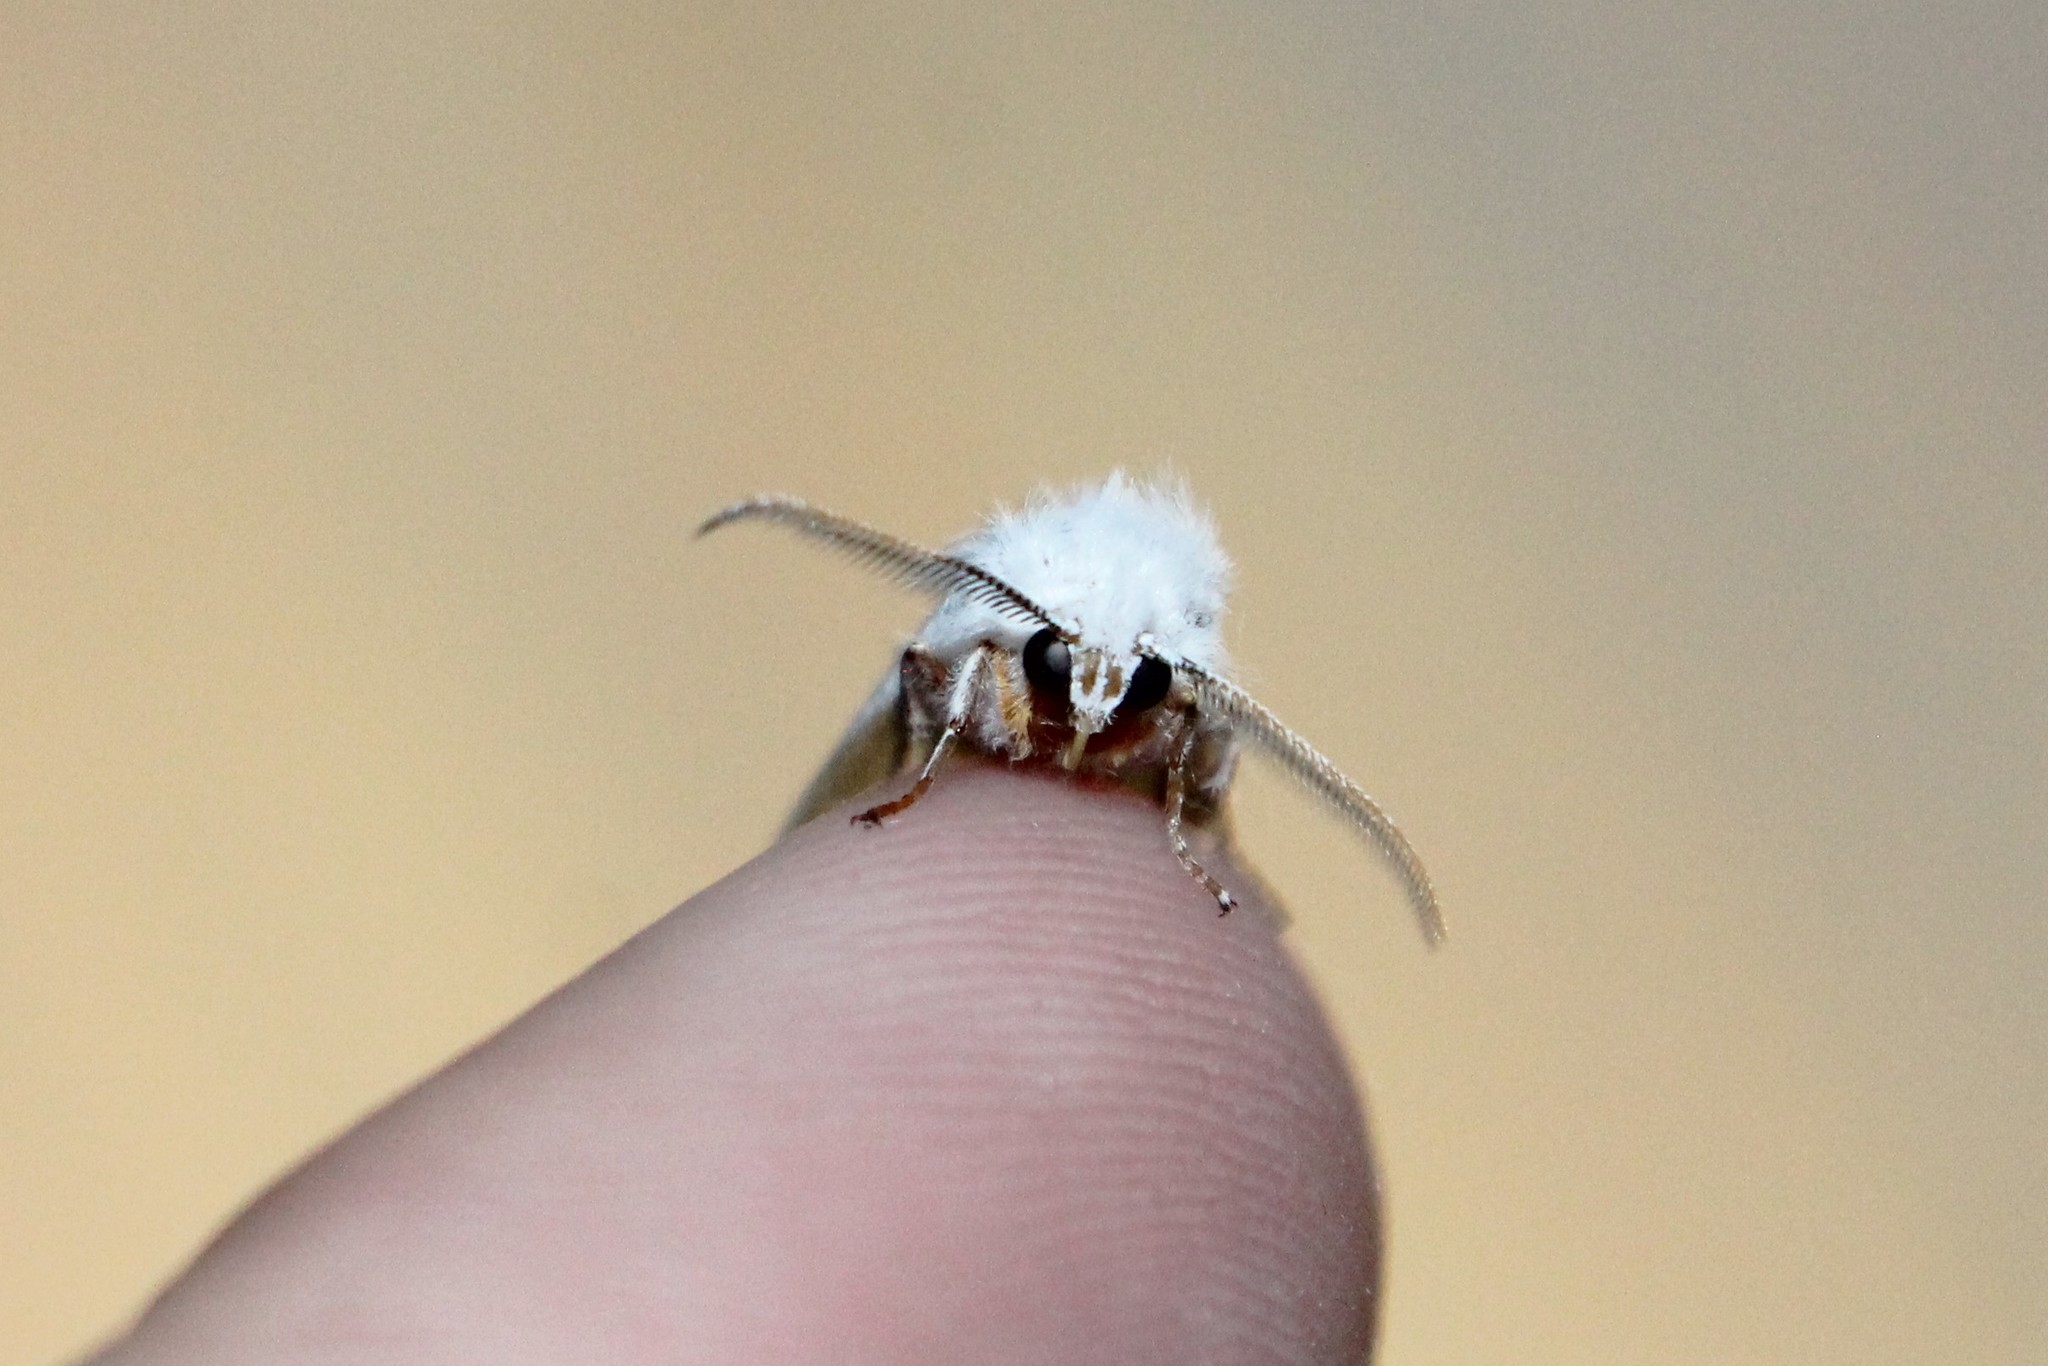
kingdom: Animalia
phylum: Arthropoda
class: Insecta
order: Lepidoptera
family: Erebidae
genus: Hyphantria
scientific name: Hyphantria cunea
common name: American white moth
